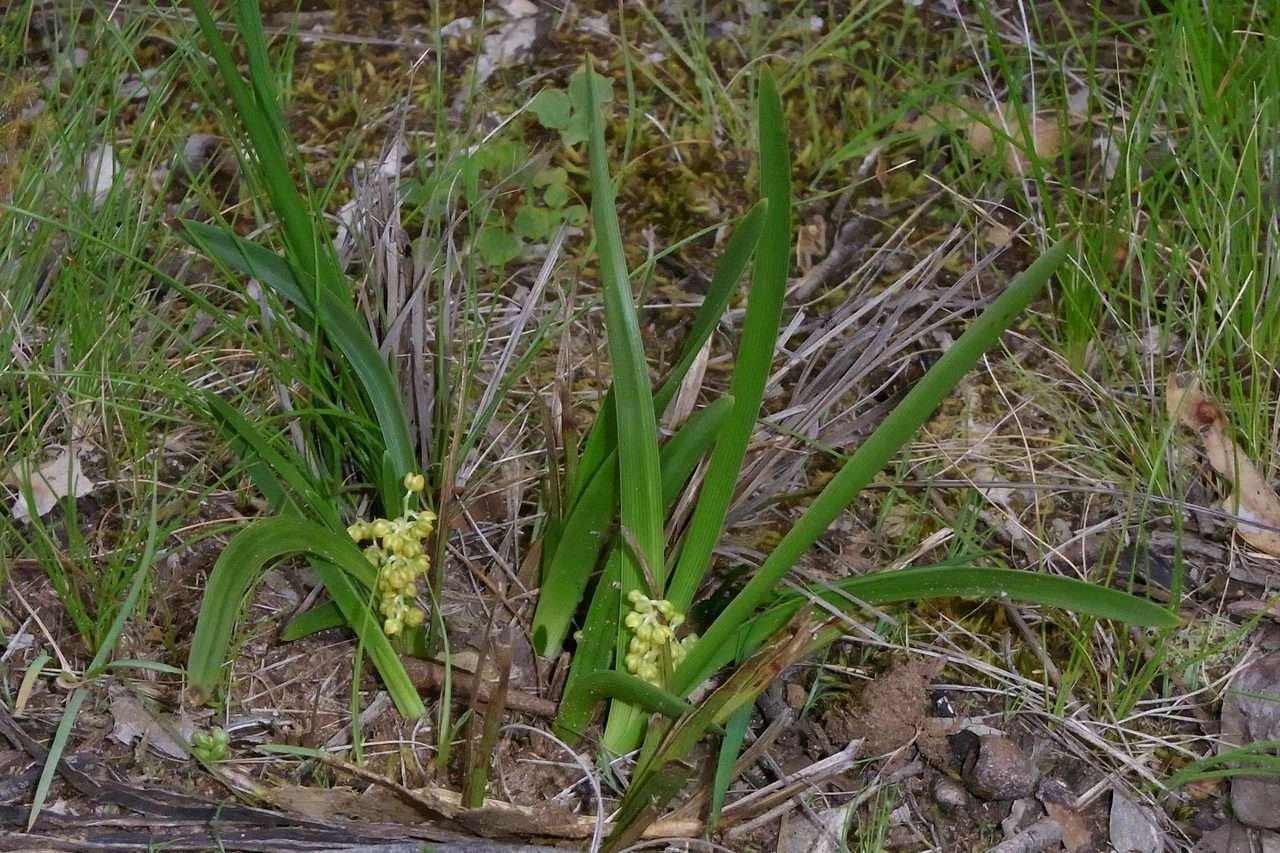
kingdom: Plantae
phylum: Tracheophyta
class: Liliopsida
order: Asparagales
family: Asparagaceae
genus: Lomandra
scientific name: Lomandra filiformis
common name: Wattle mat-rush
